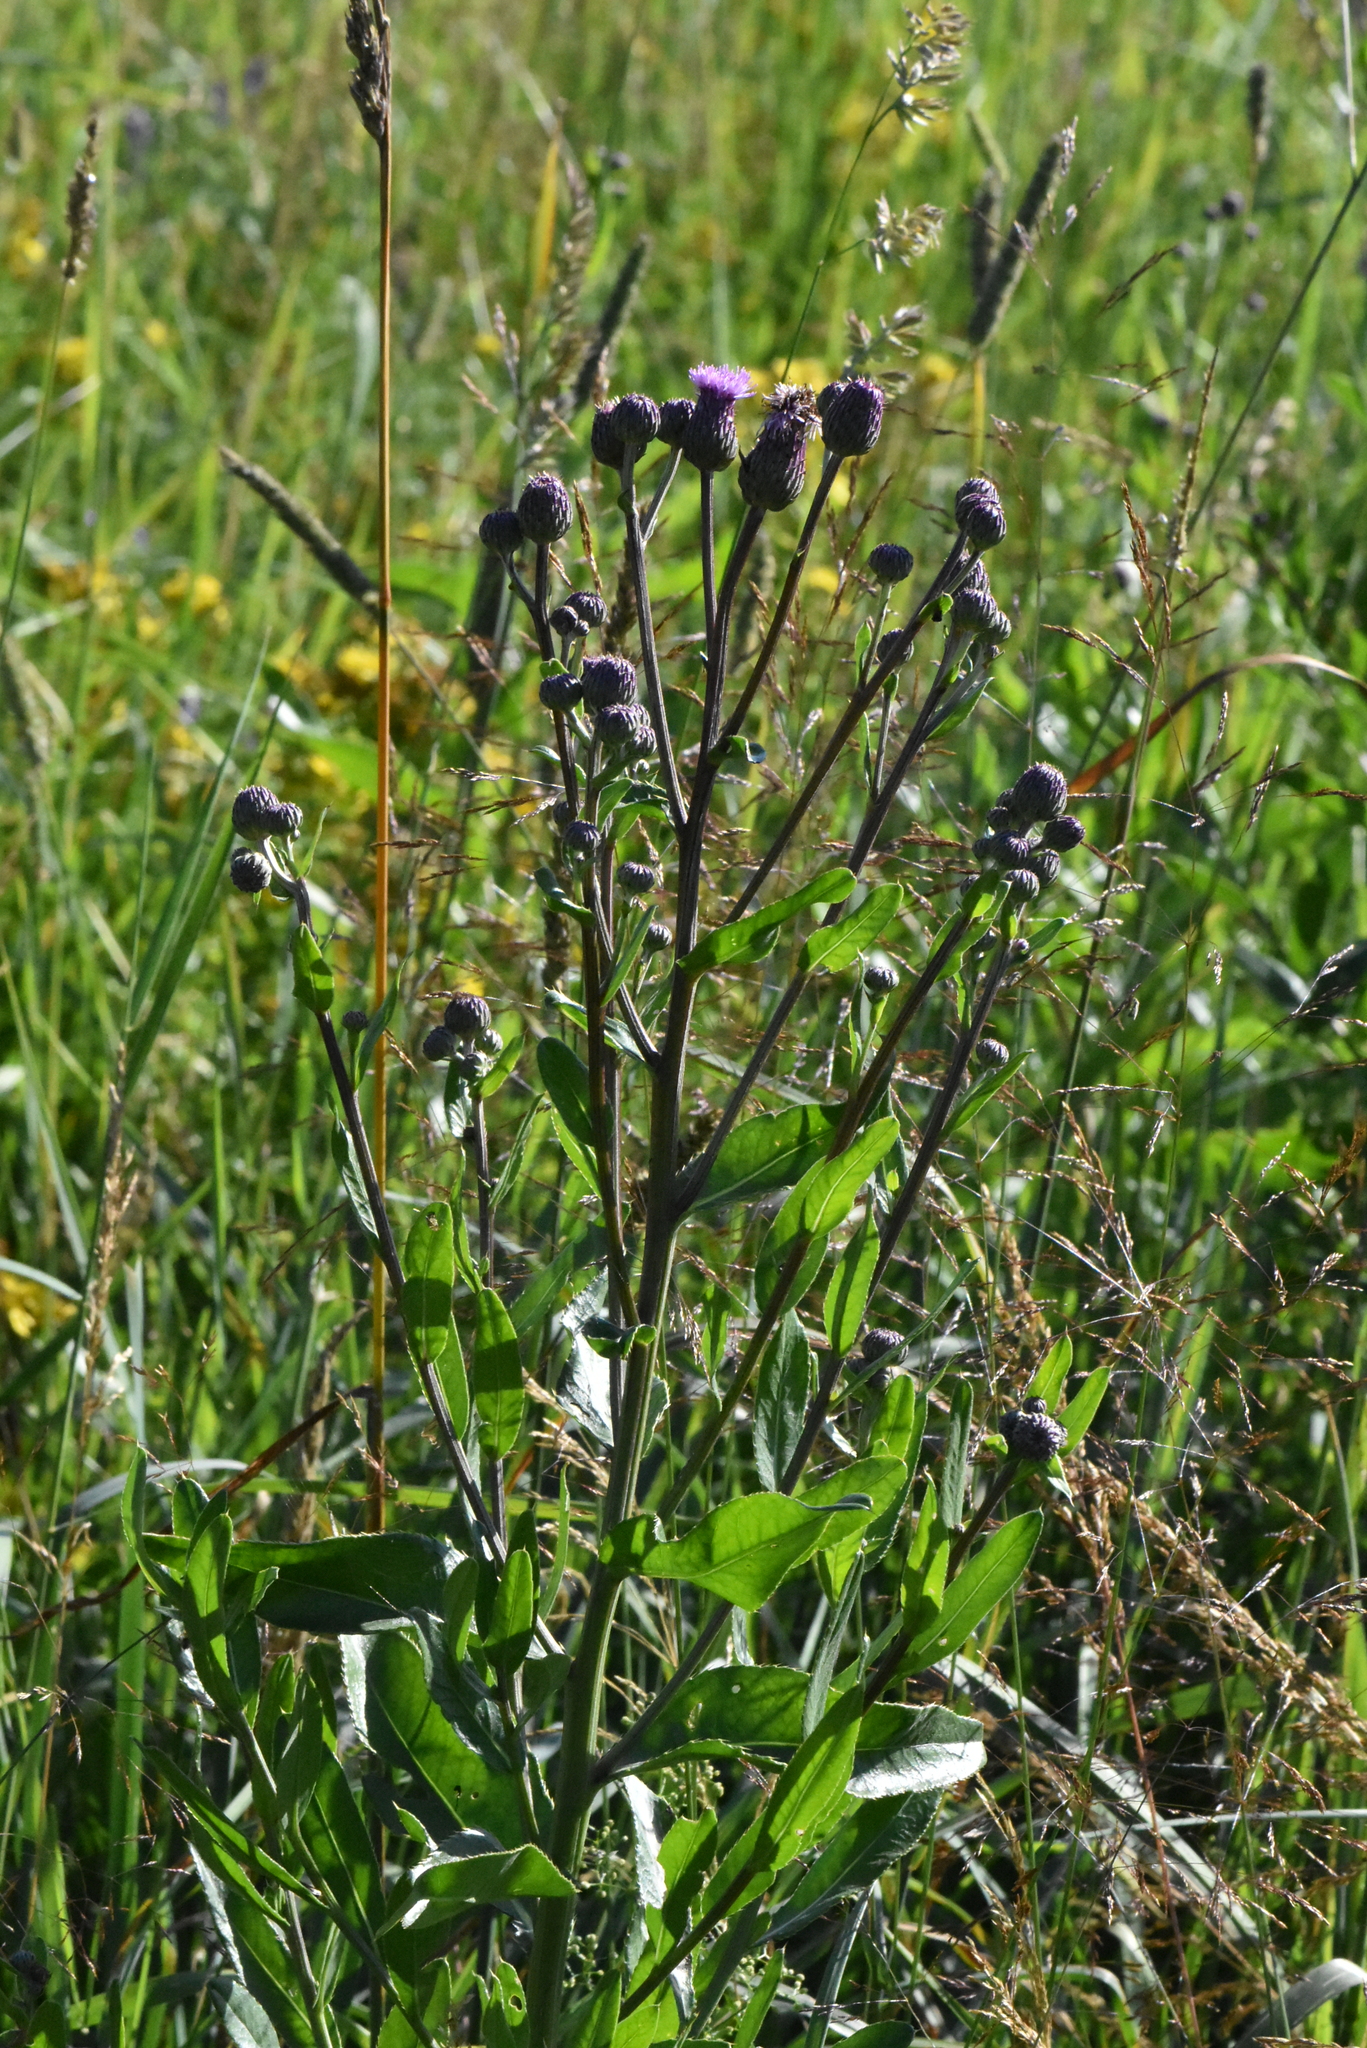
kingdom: Plantae
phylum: Tracheophyta
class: Magnoliopsida
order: Asterales
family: Asteraceae
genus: Cirsium
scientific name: Cirsium arvense
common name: Creeping thistle
